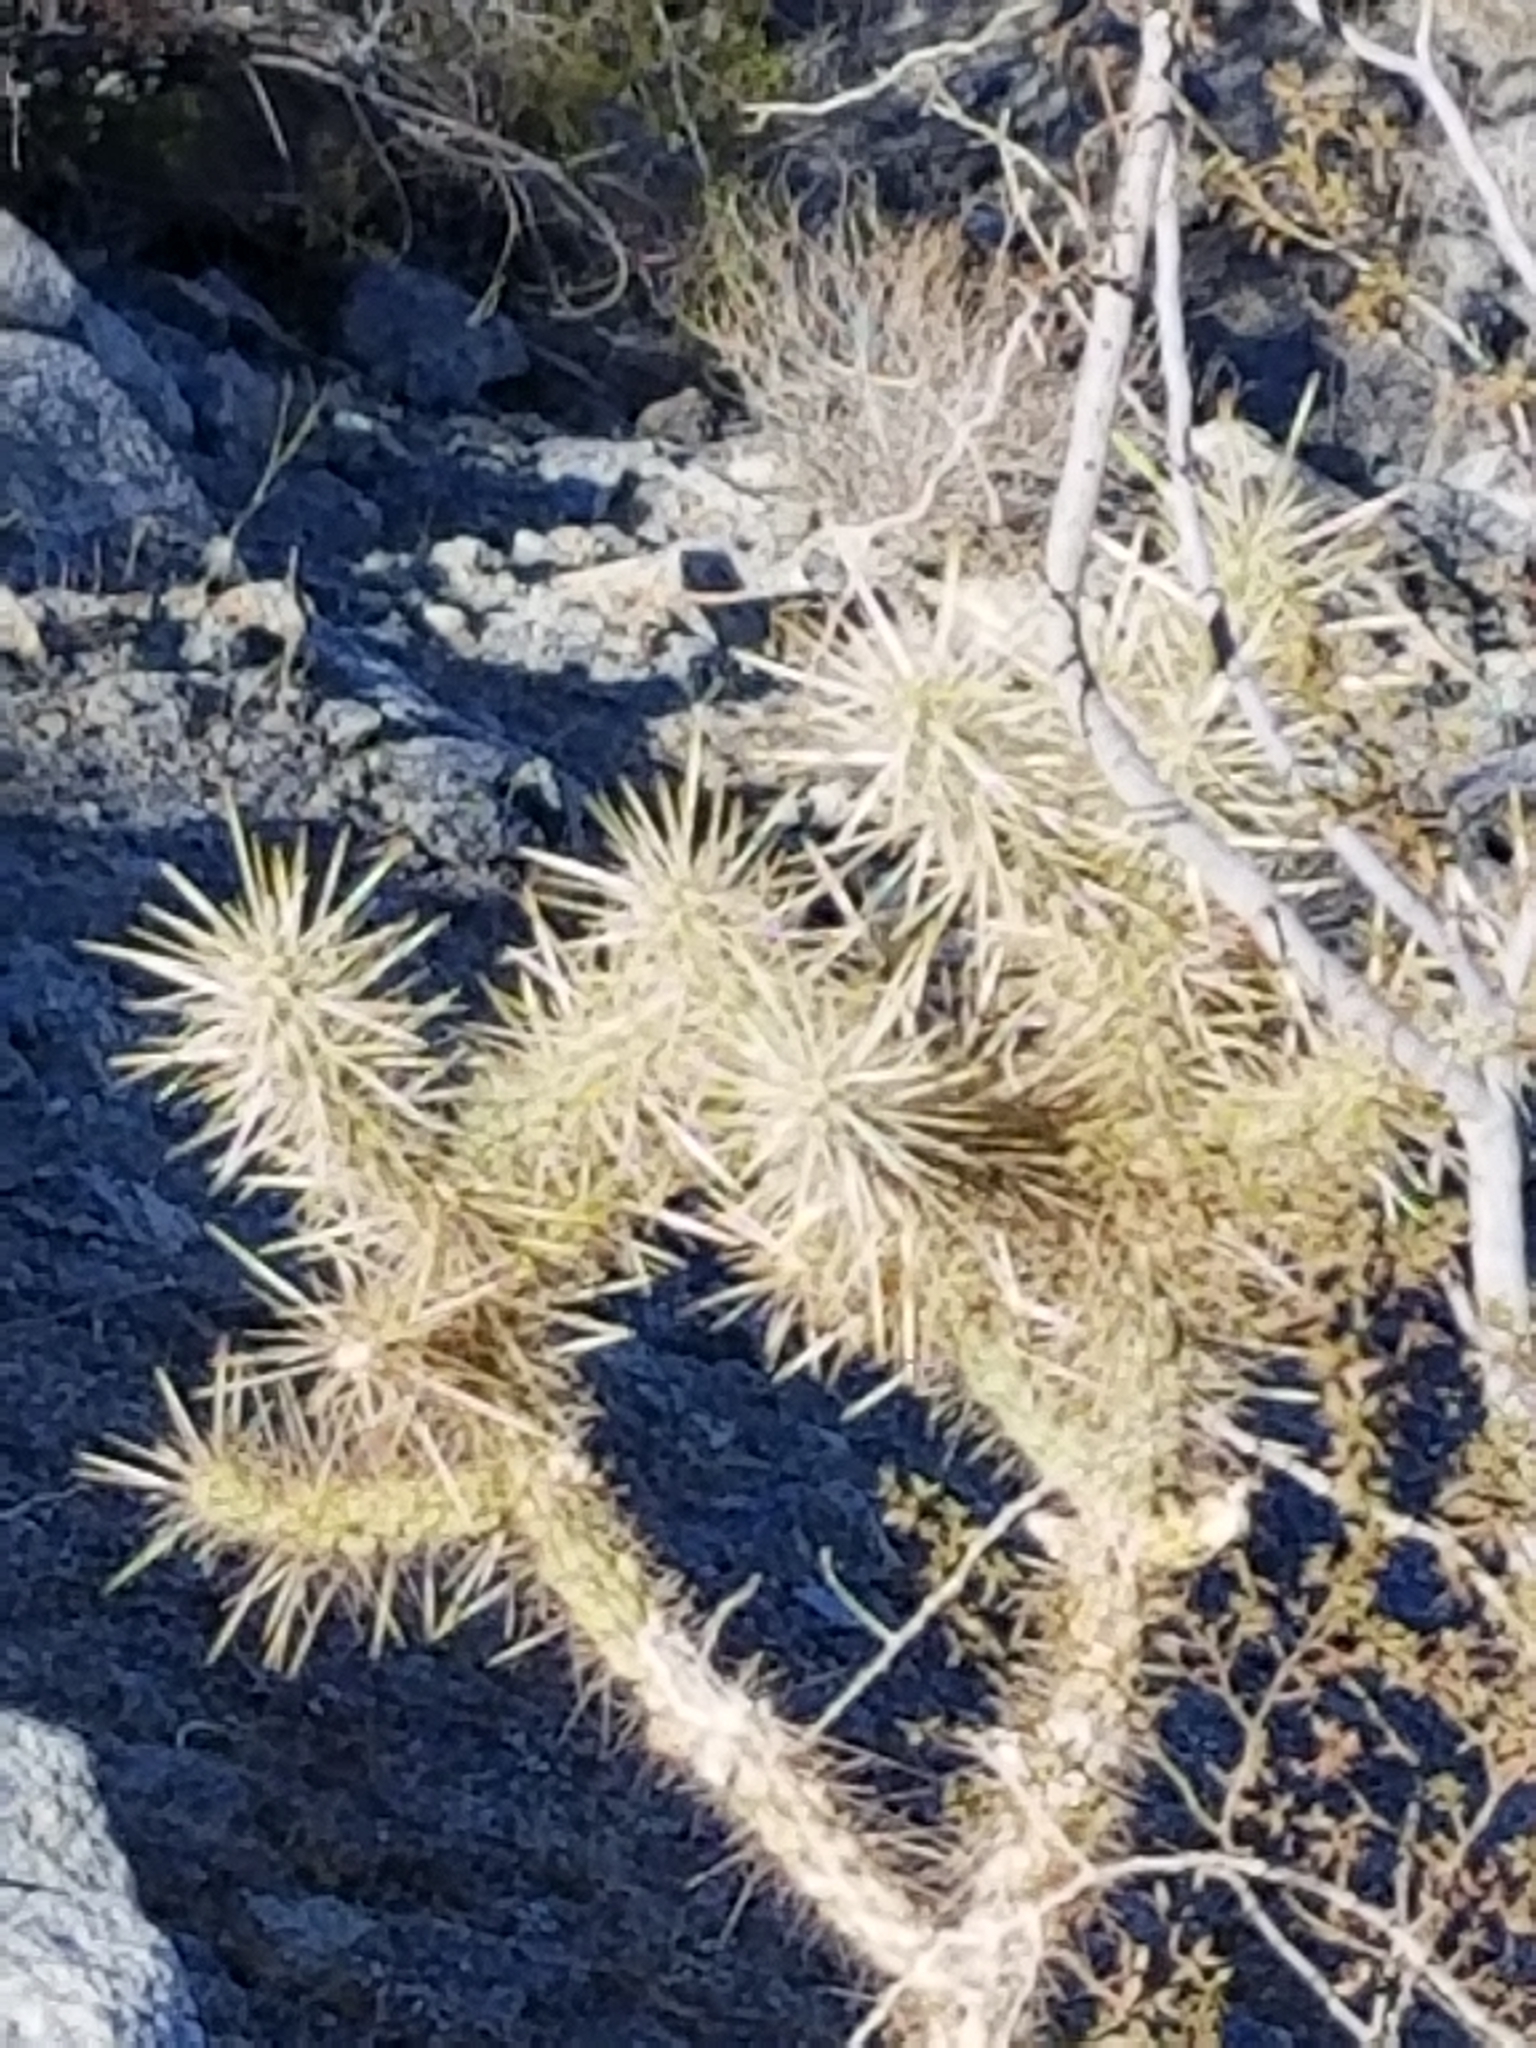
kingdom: Plantae
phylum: Tracheophyta
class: Magnoliopsida
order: Caryophyllales
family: Cactaceae
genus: Cylindropuntia
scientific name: Cylindropuntia echinocarpa
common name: Ground cholla
